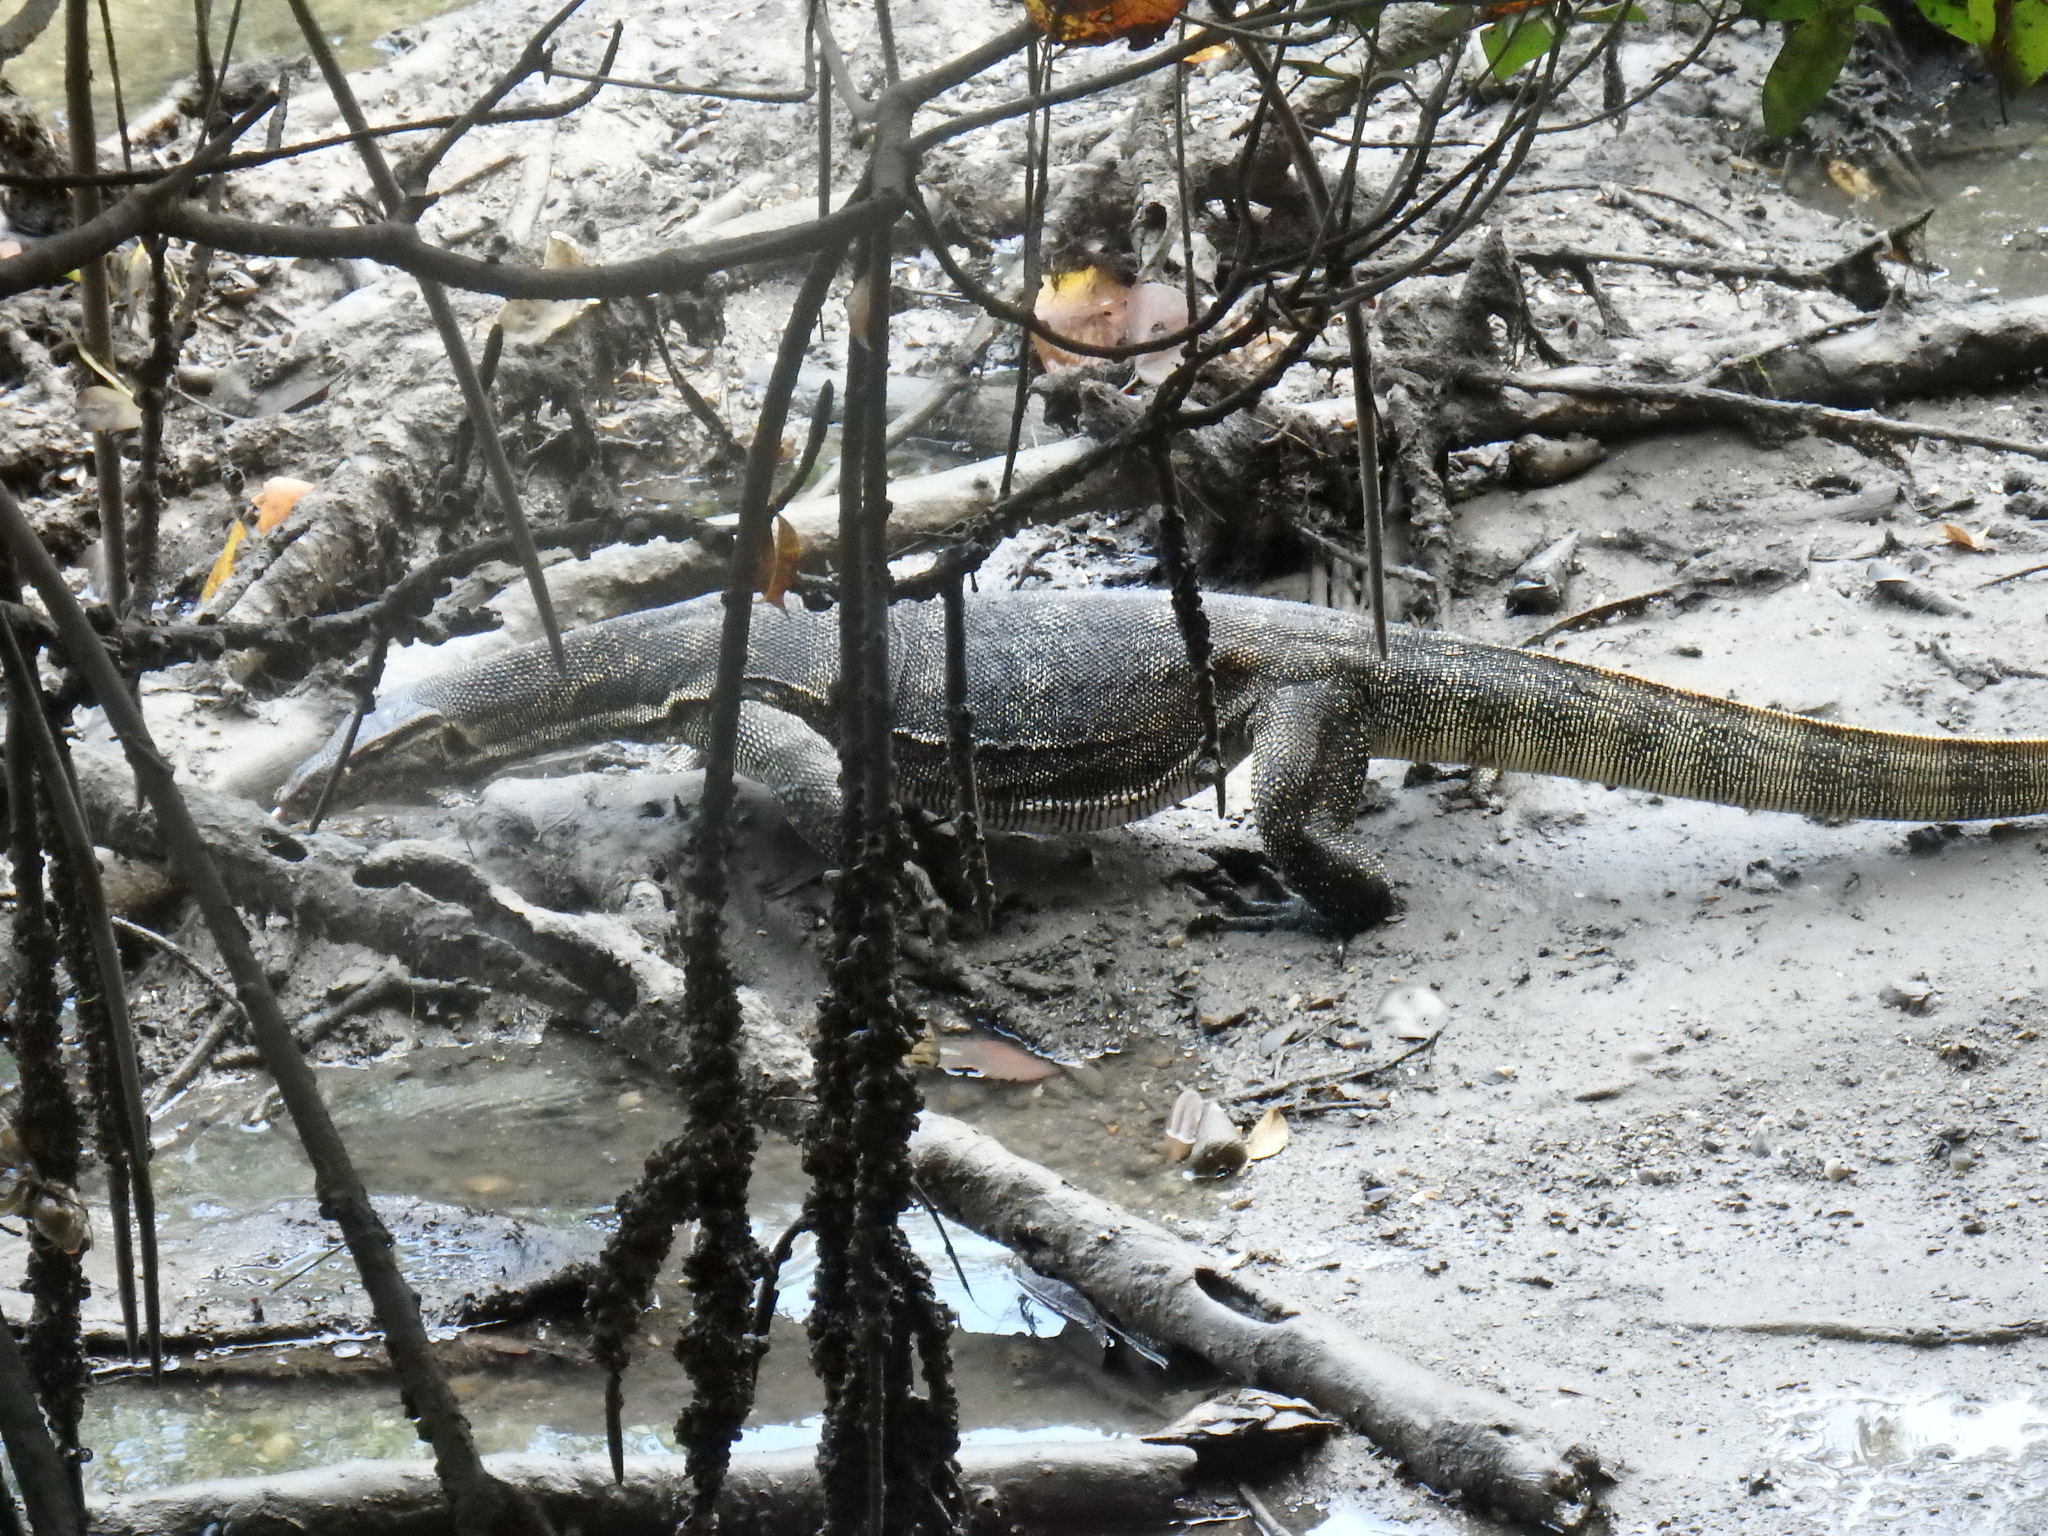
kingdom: Animalia
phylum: Chordata
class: Squamata
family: Varanidae
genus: Varanus
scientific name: Varanus salvator
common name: Common water monitor
